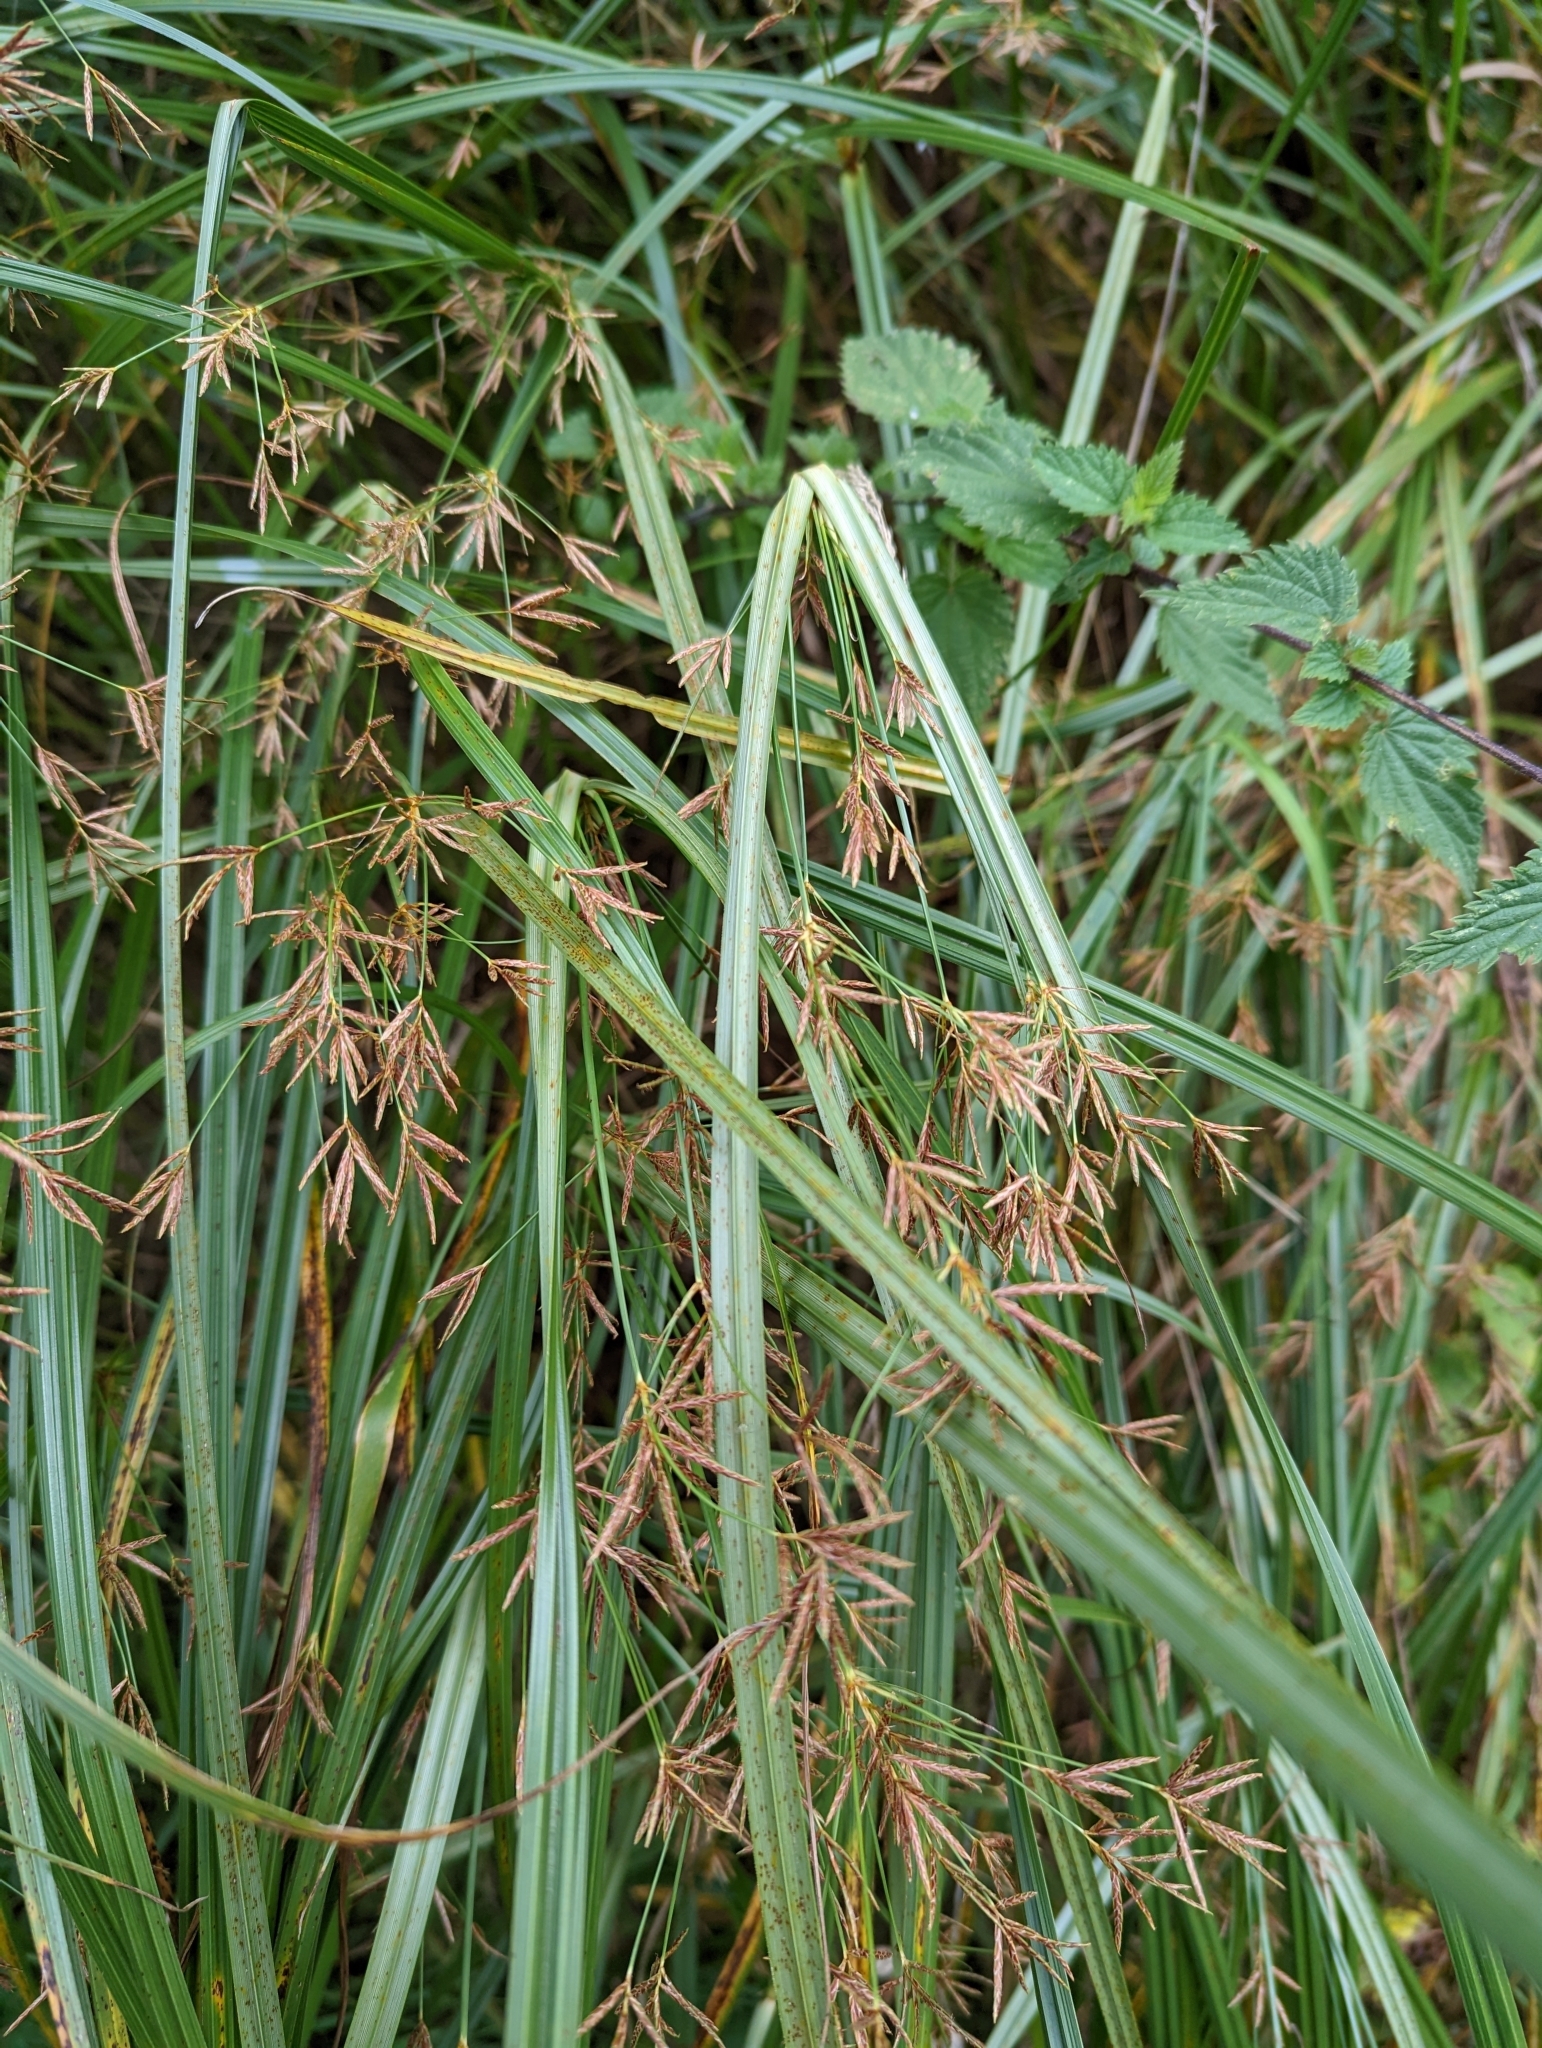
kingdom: Plantae
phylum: Tracheophyta
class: Liliopsida
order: Poales
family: Cyperaceae
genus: Cyperus
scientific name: Cyperus longus
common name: Galingale
